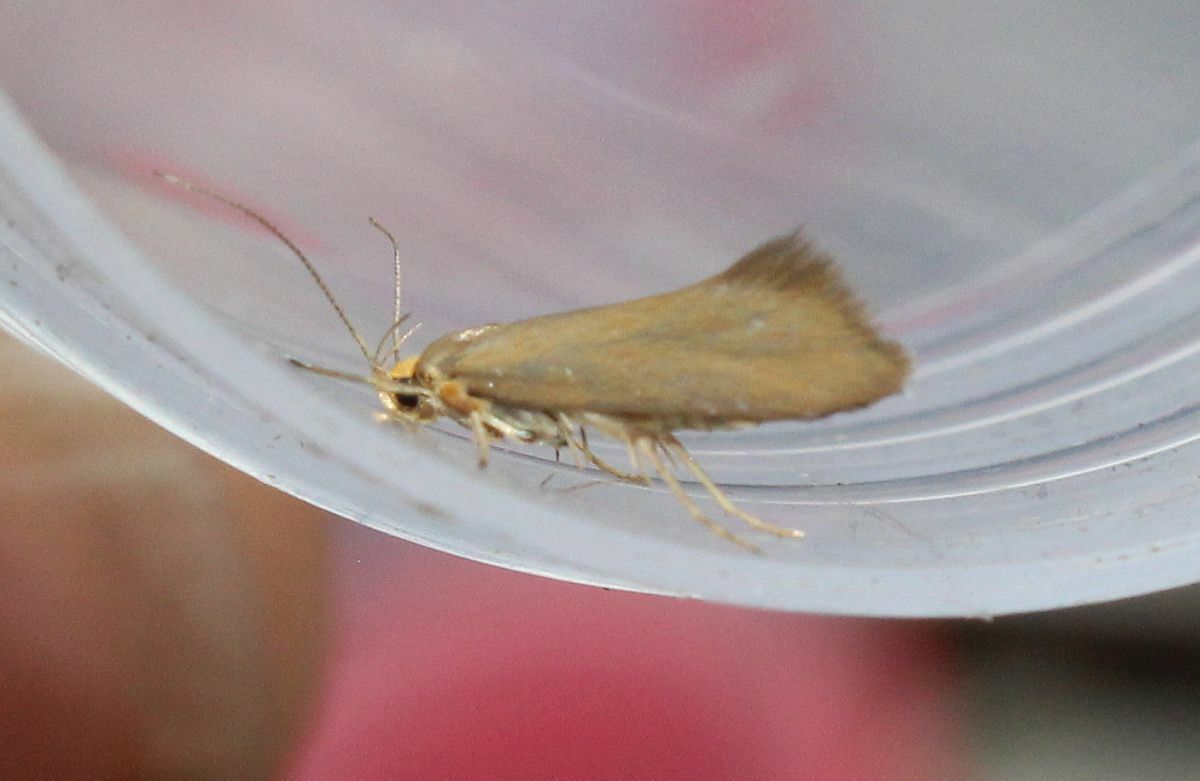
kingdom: Animalia
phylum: Arthropoda
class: Insecta
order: Lepidoptera
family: Oecophoridae
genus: Borkhausenia
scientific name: Borkhausenia Crassa unitella
